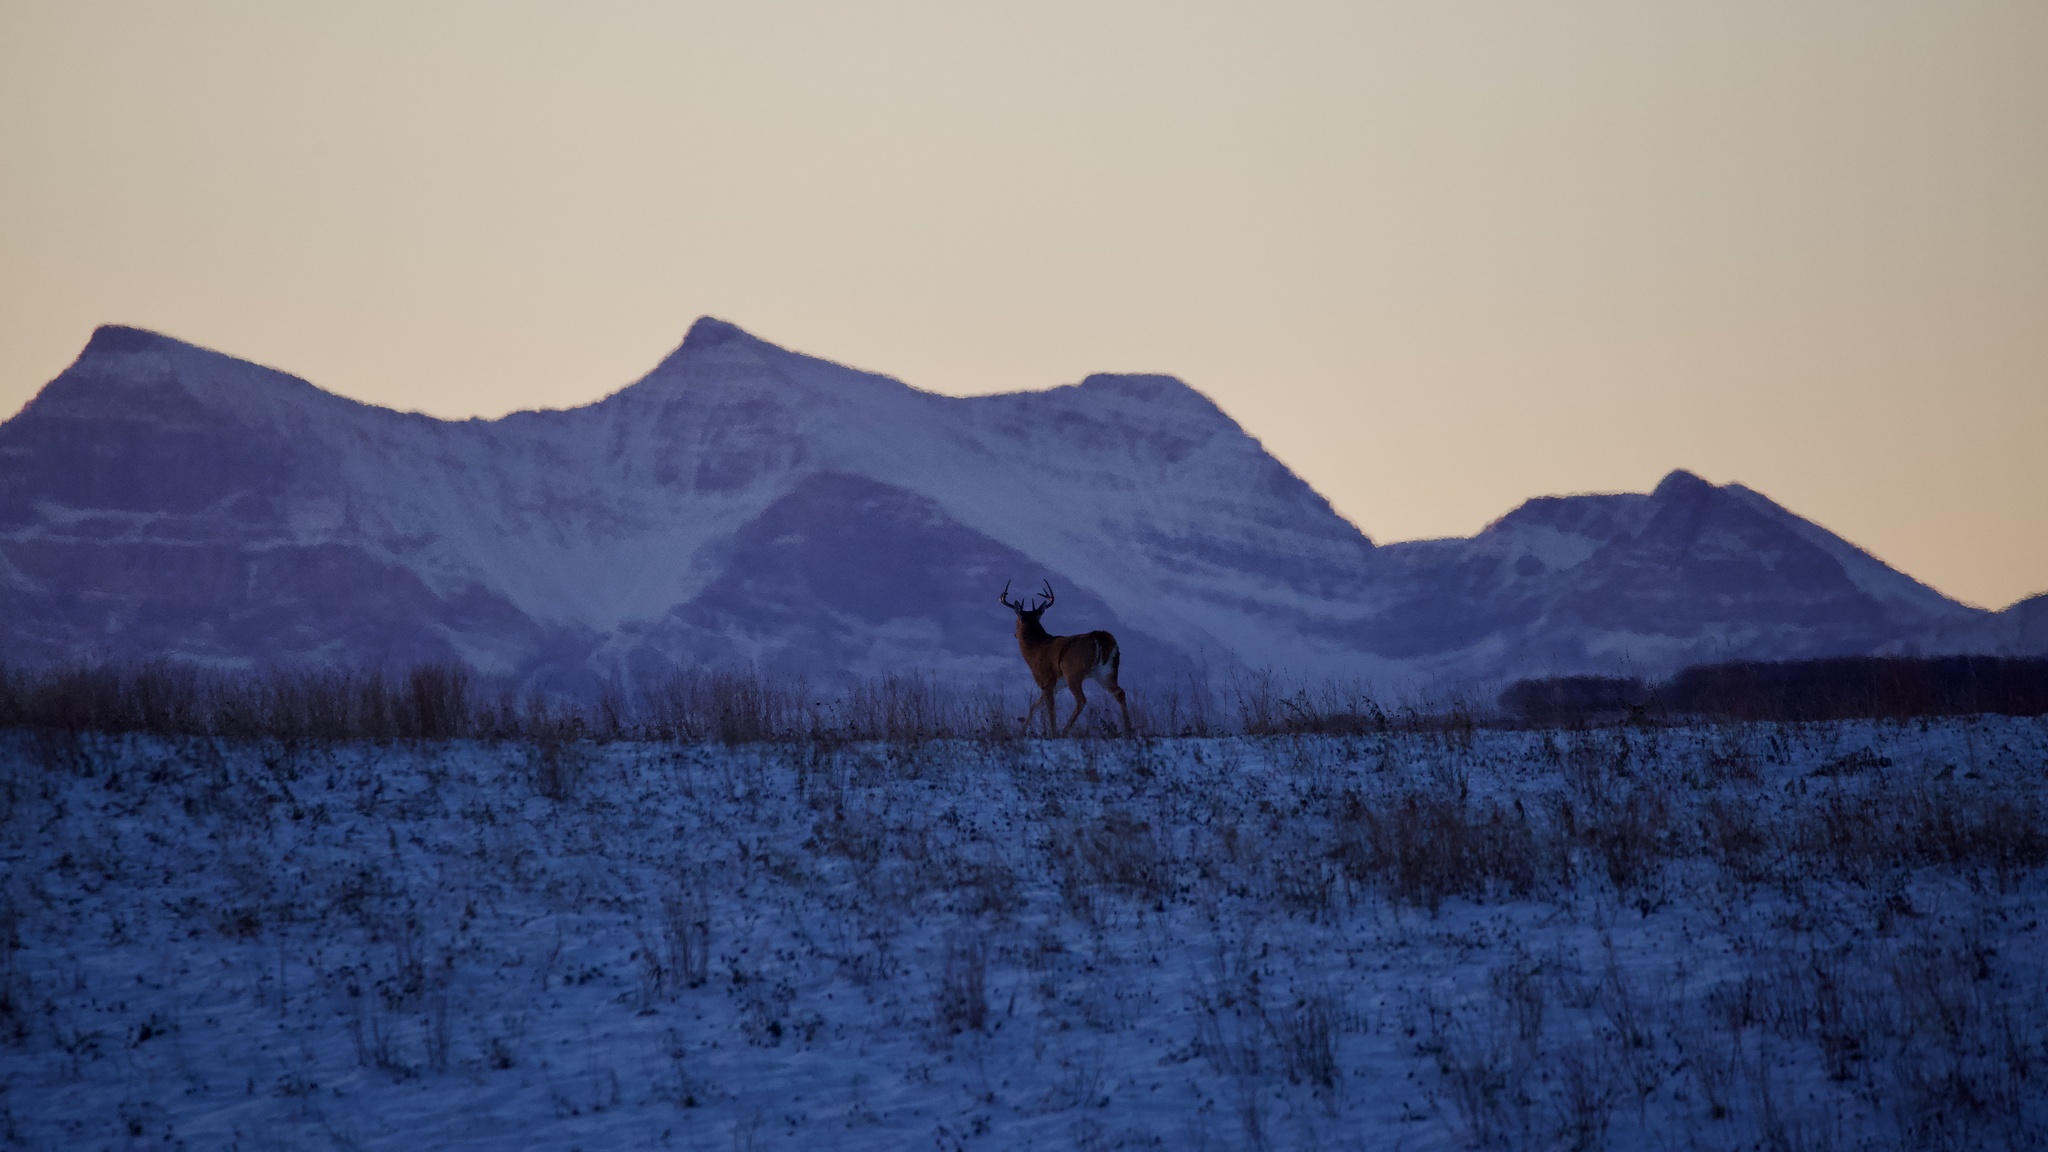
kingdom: Animalia
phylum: Chordata
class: Mammalia
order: Artiodactyla
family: Cervidae
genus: Odocoileus
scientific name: Odocoileus virginianus
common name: White-tailed deer
